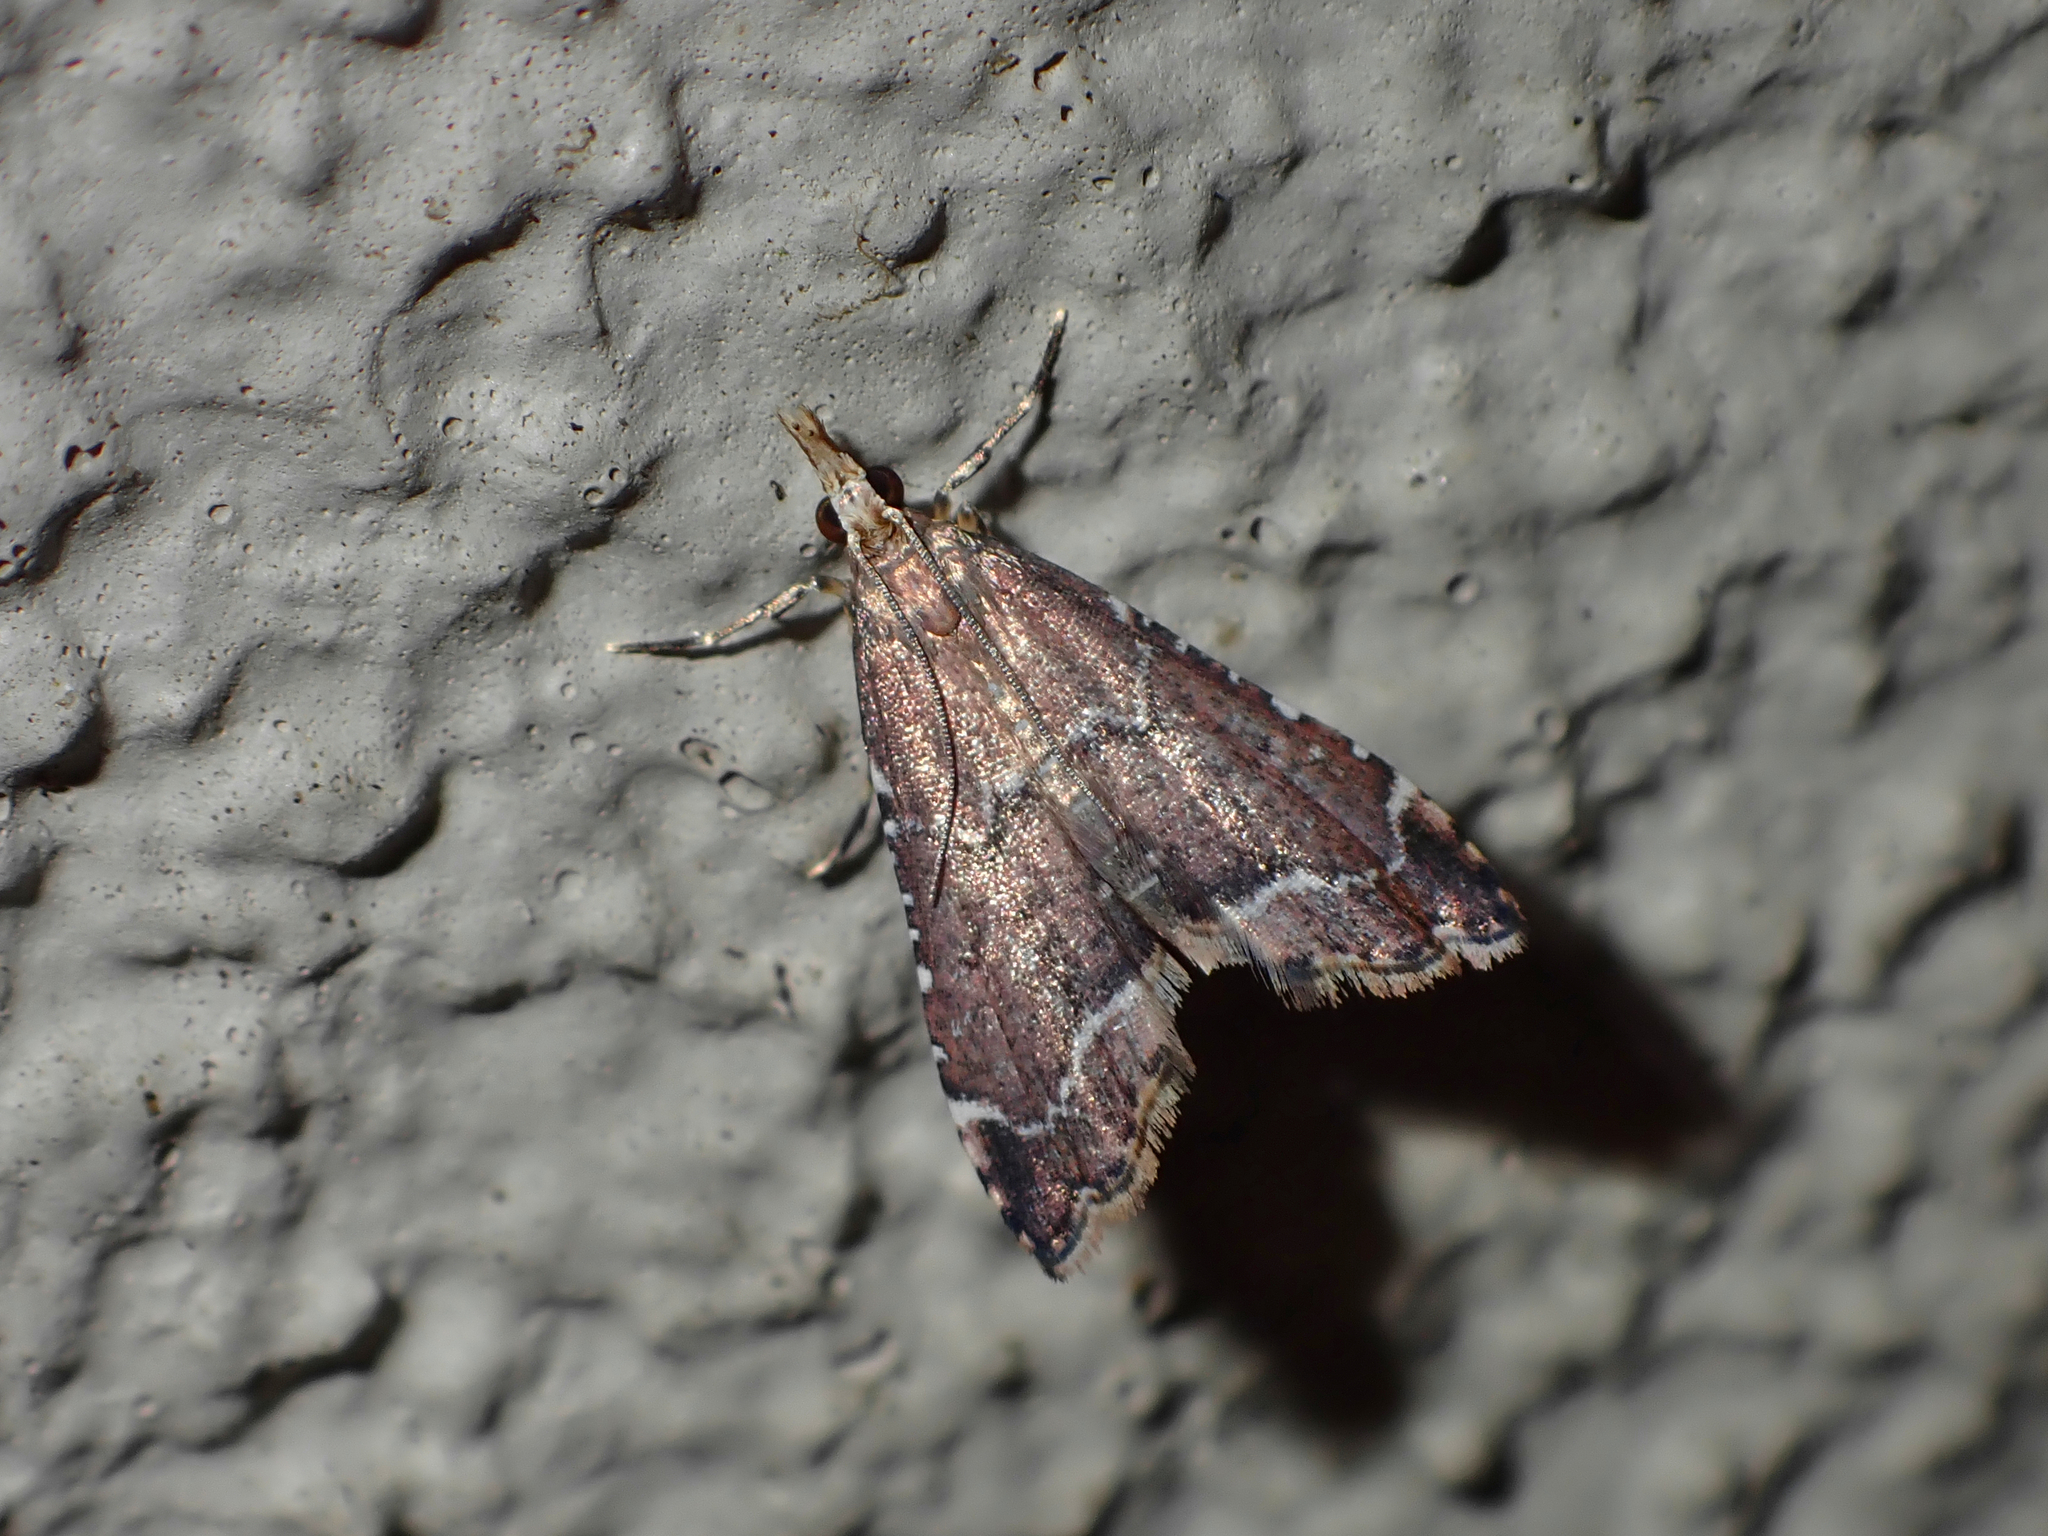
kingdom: Animalia
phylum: Arthropoda
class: Insecta
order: Lepidoptera
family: Crambidae
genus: Diplopseustis
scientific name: Diplopseustis perieresalis
